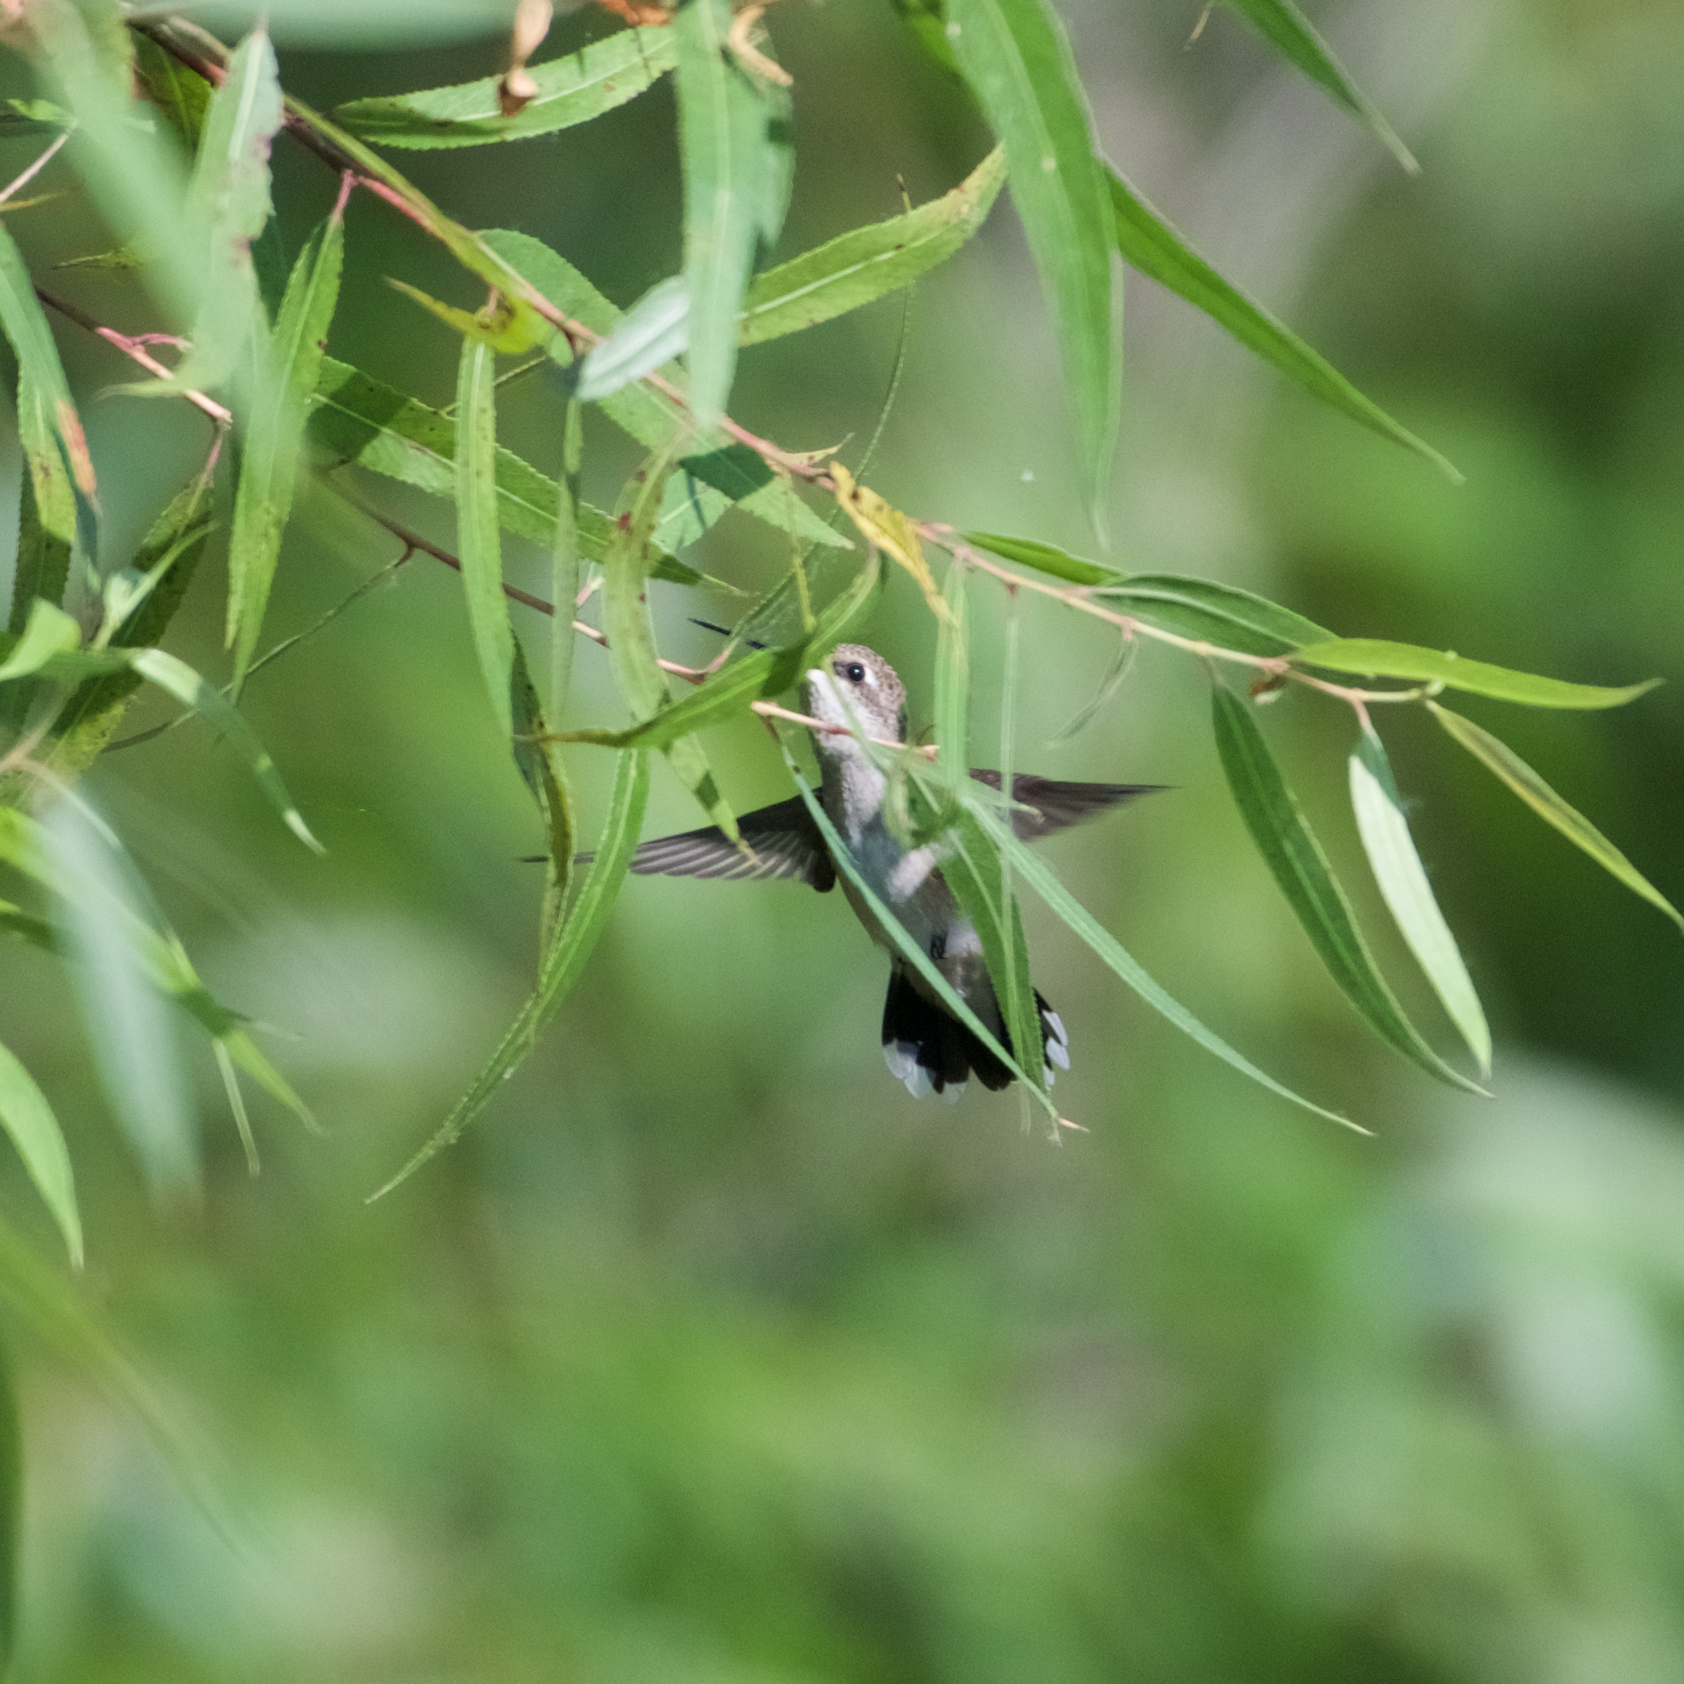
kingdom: Animalia
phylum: Chordata
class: Aves
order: Apodiformes
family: Trochilidae
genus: Archilochus
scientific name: Archilochus alexandri
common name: Black-chinned hummingbird
